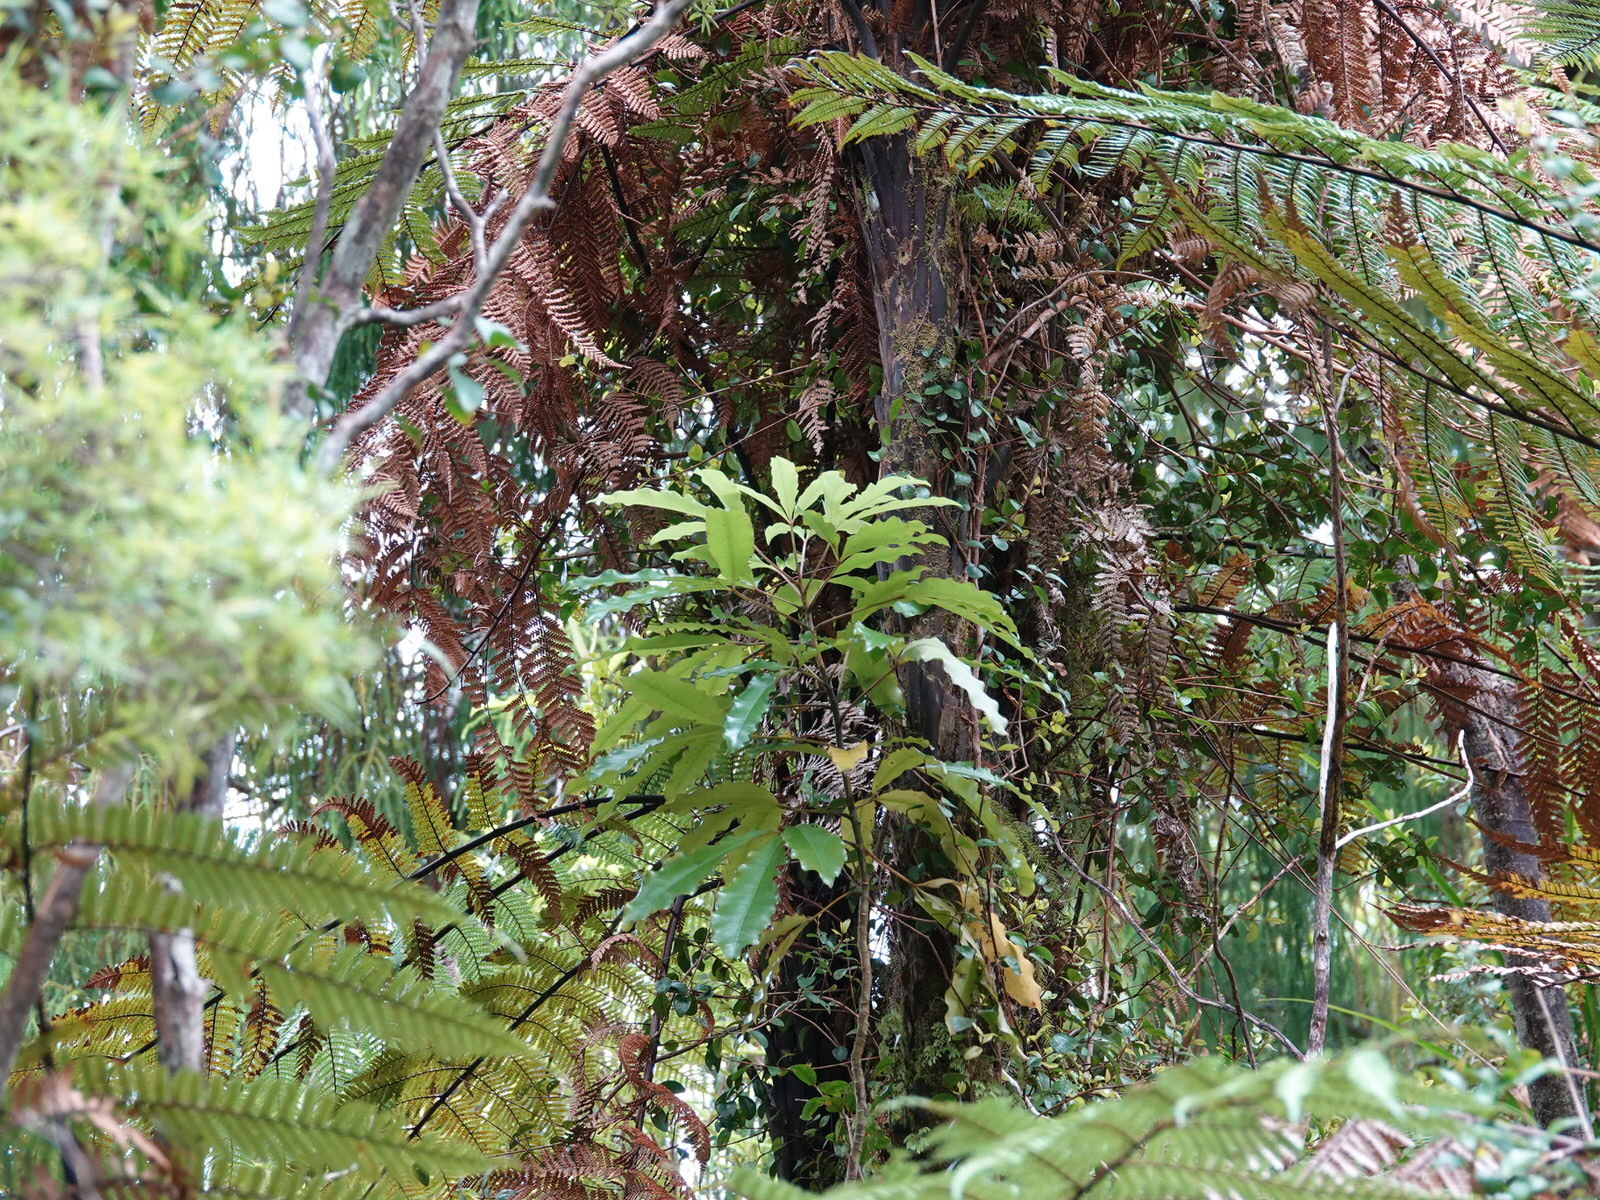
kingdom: Plantae
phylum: Tracheophyta
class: Magnoliopsida
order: Apiales
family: Araliaceae
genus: Raukaua
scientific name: Raukaua edgerleyi
